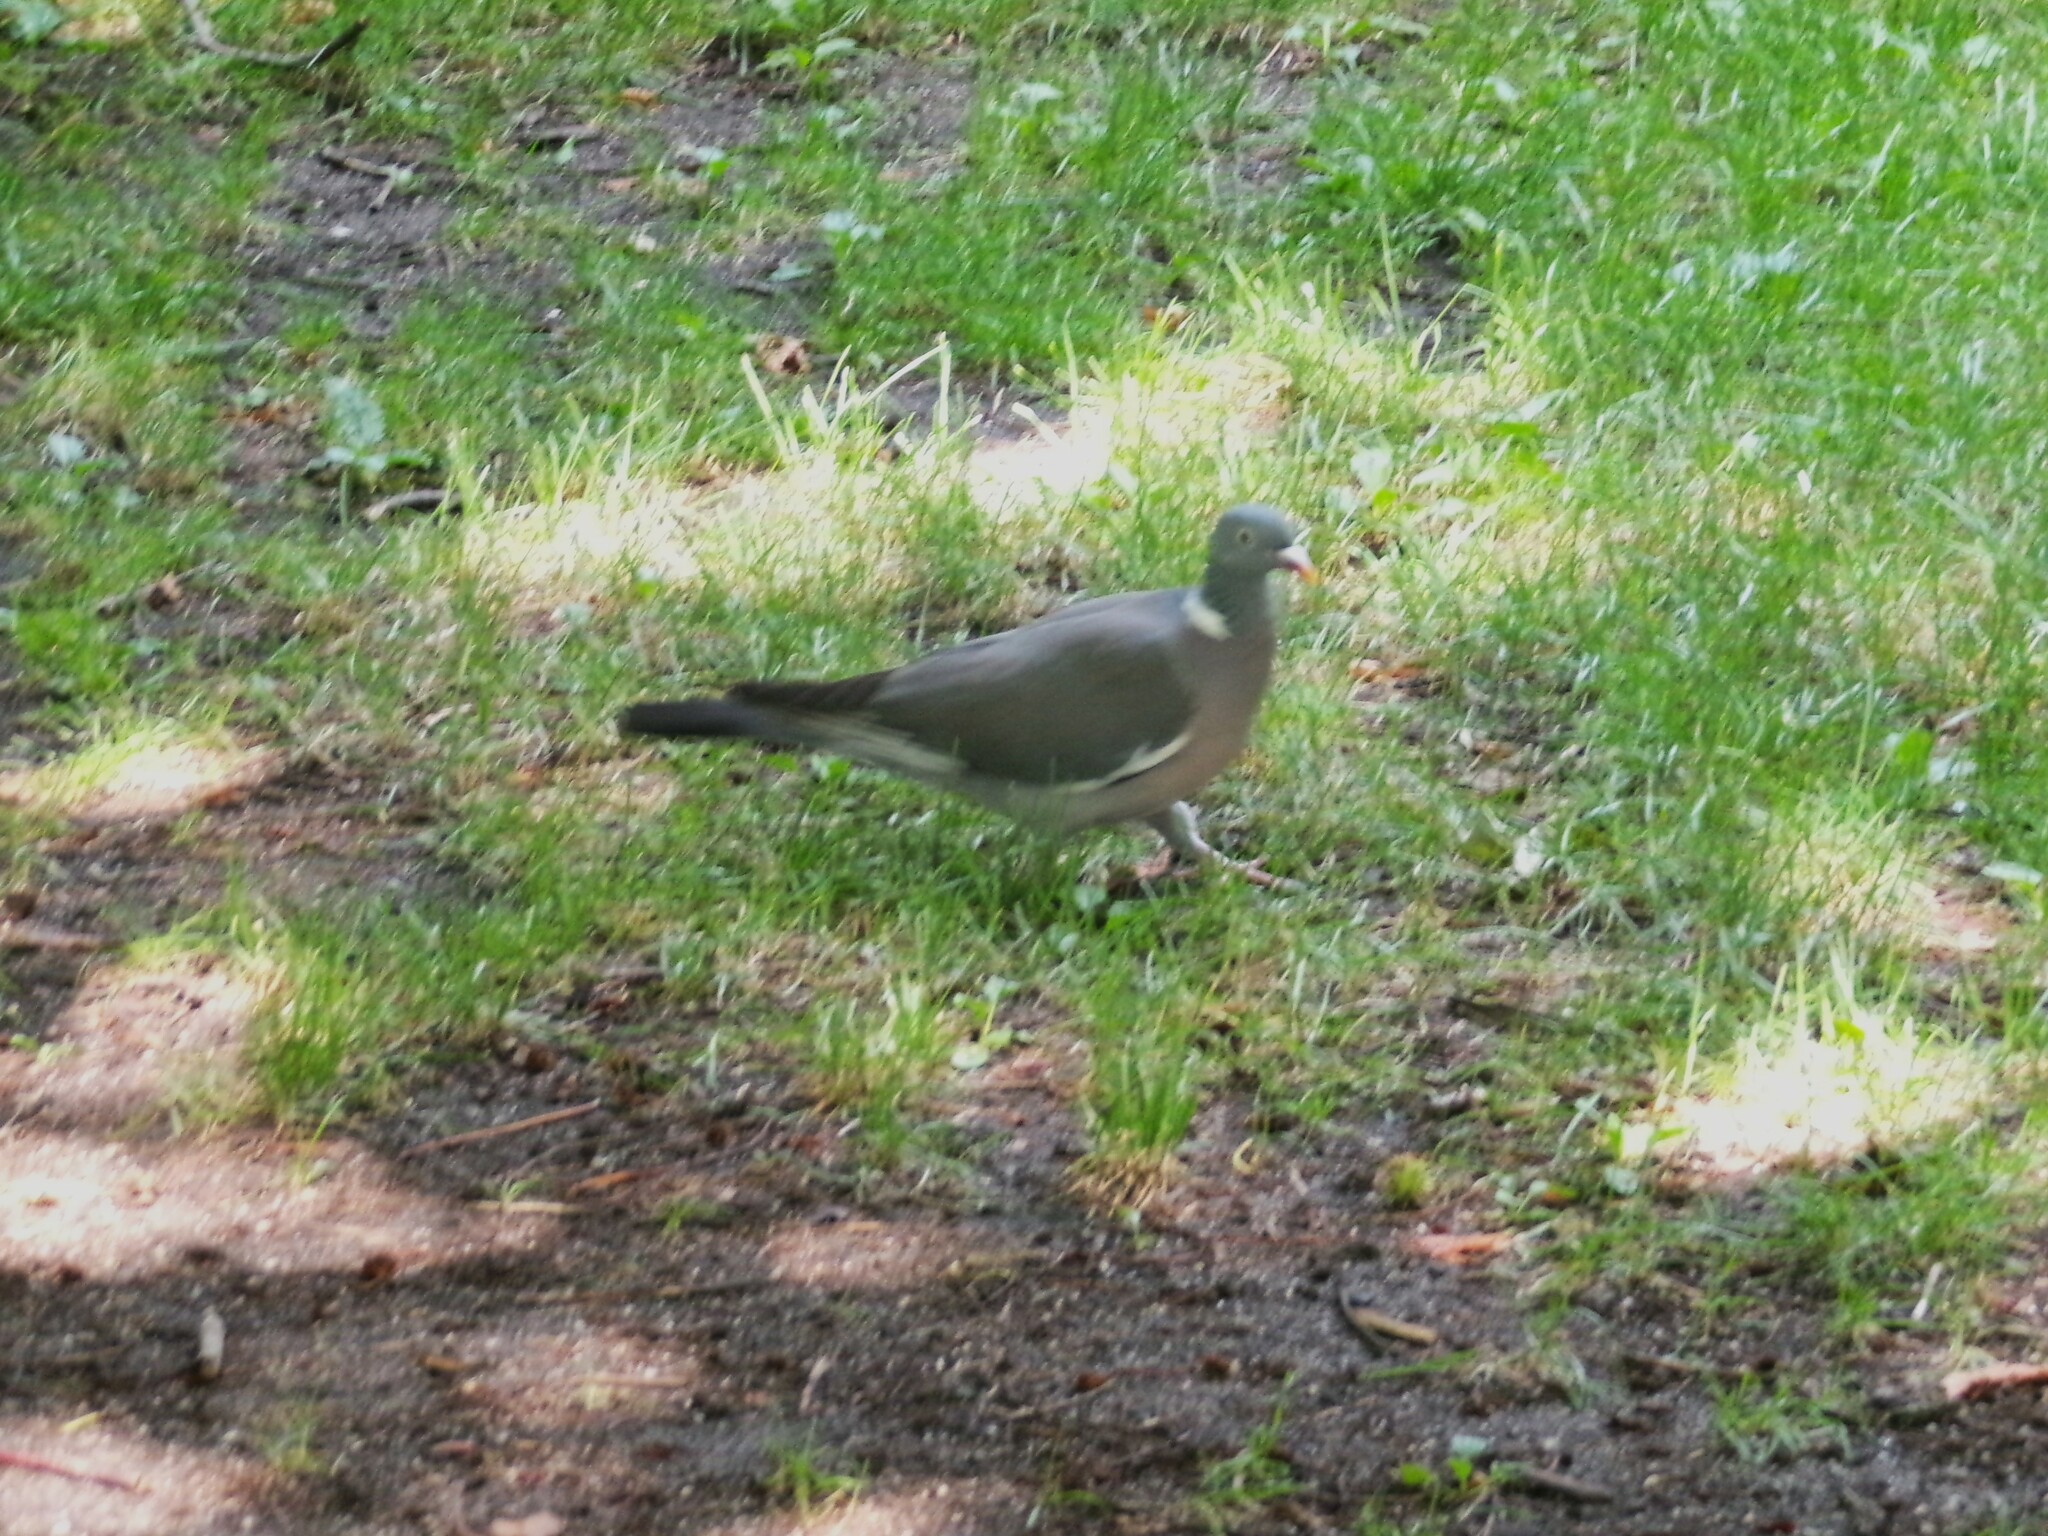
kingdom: Animalia
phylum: Chordata
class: Aves
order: Columbiformes
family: Columbidae
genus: Columba
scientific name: Columba palumbus
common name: Common wood pigeon
